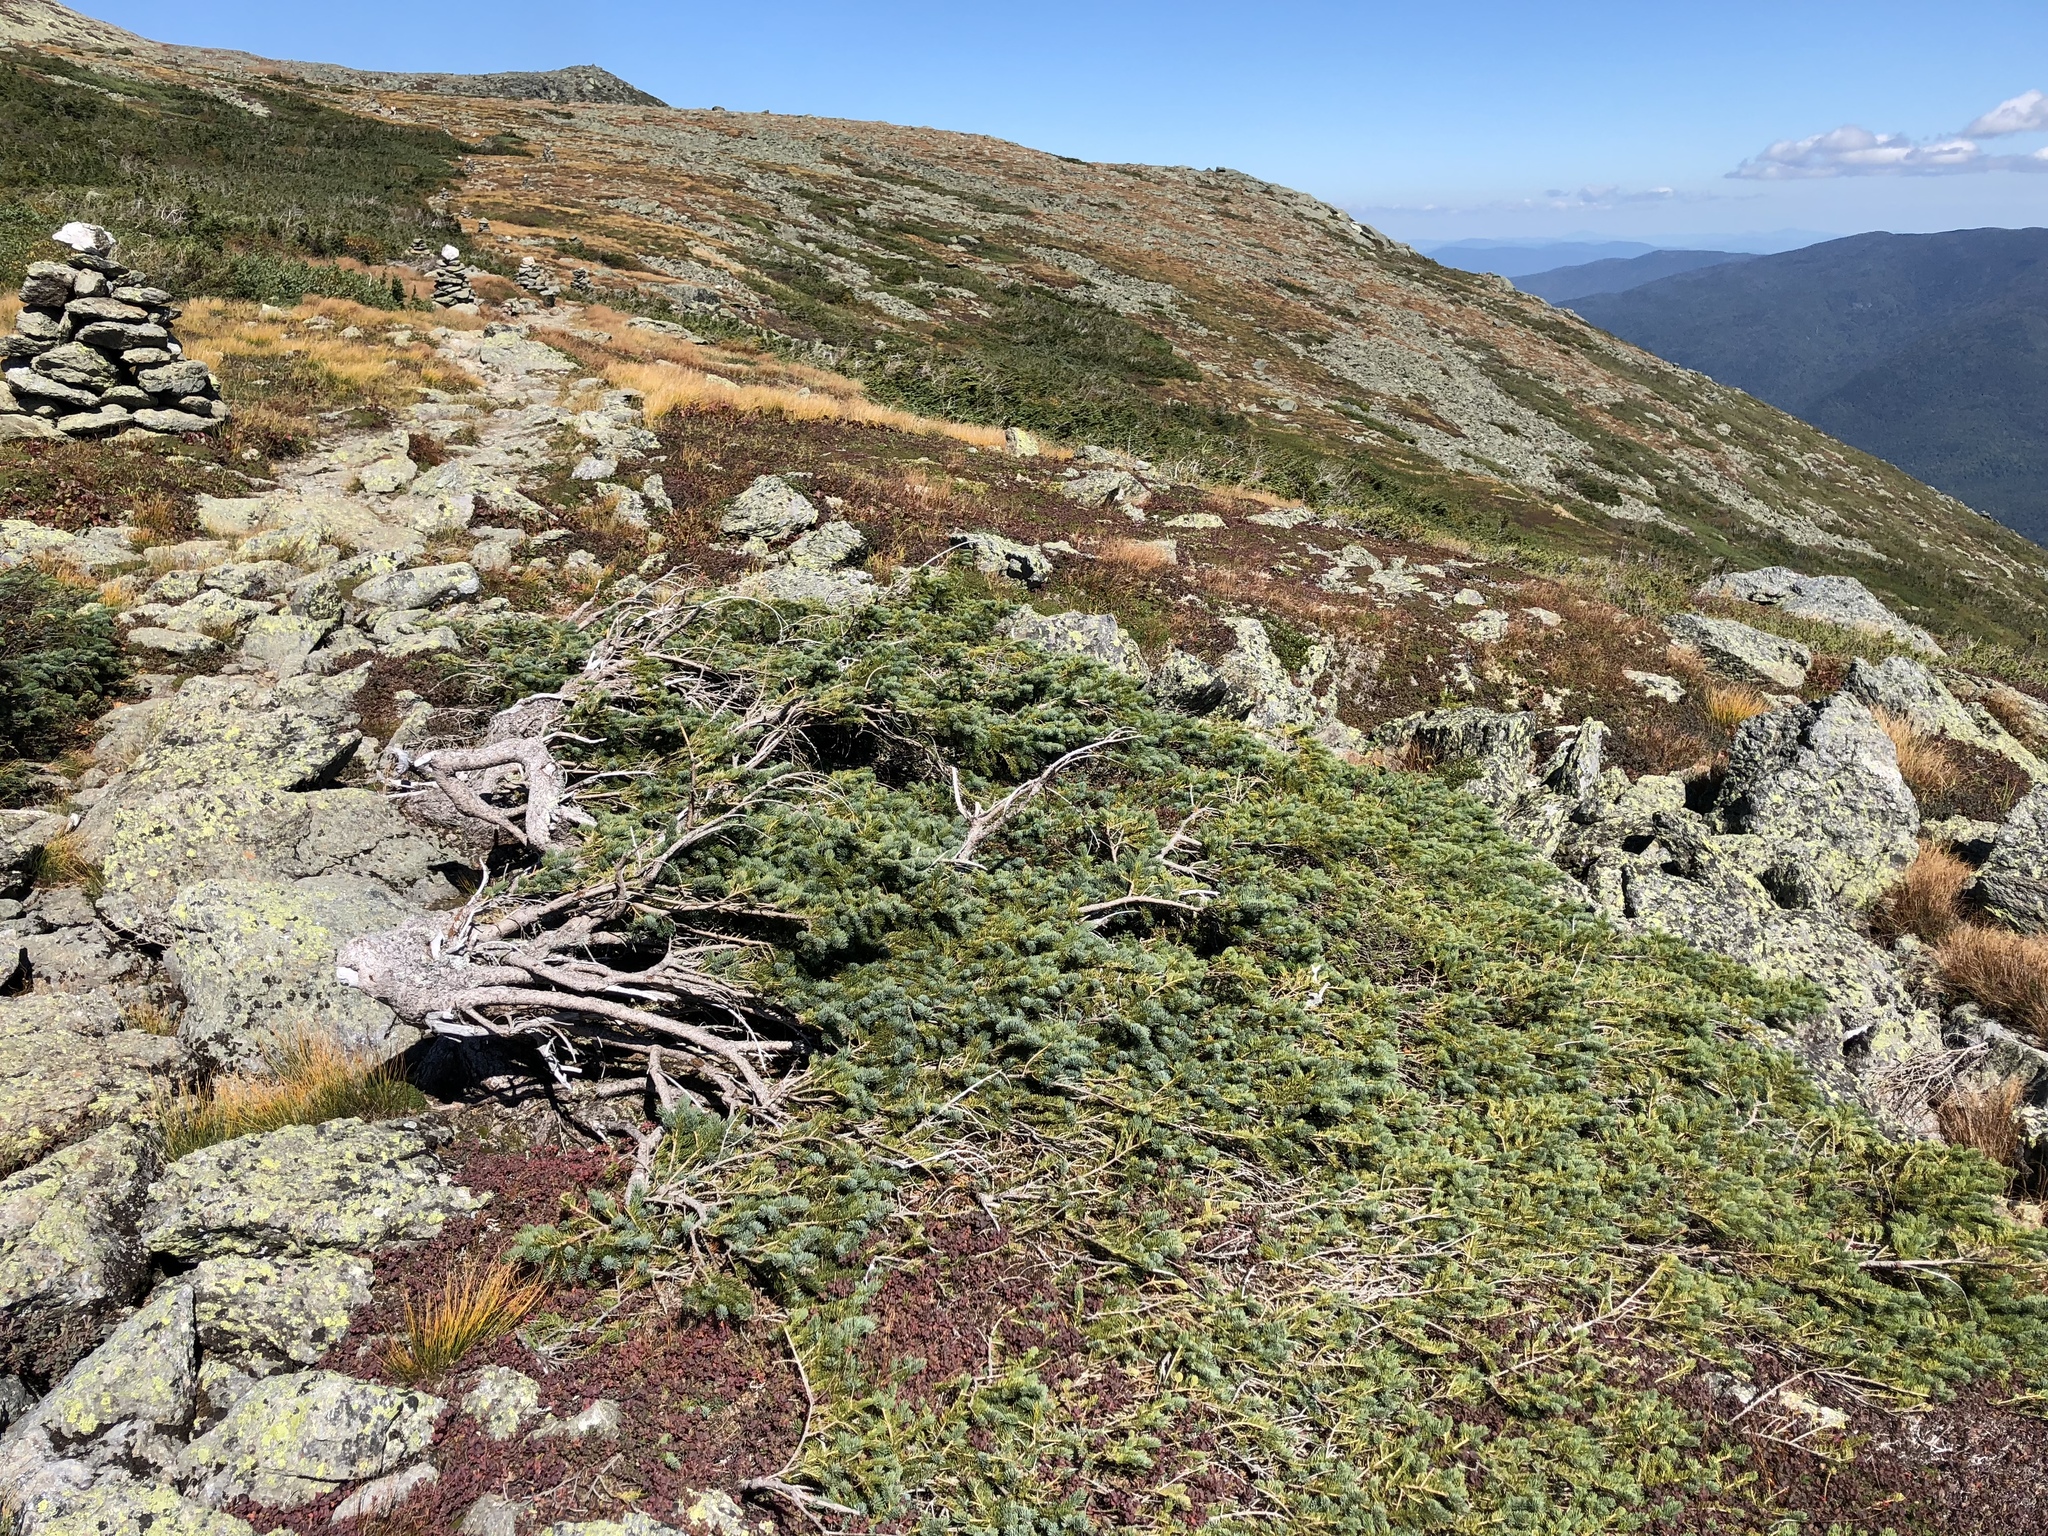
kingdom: Plantae
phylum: Tracheophyta
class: Pinopsida
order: Pinales
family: Pinaceae
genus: Abies
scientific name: Abies balsamea
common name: Balsam fir
